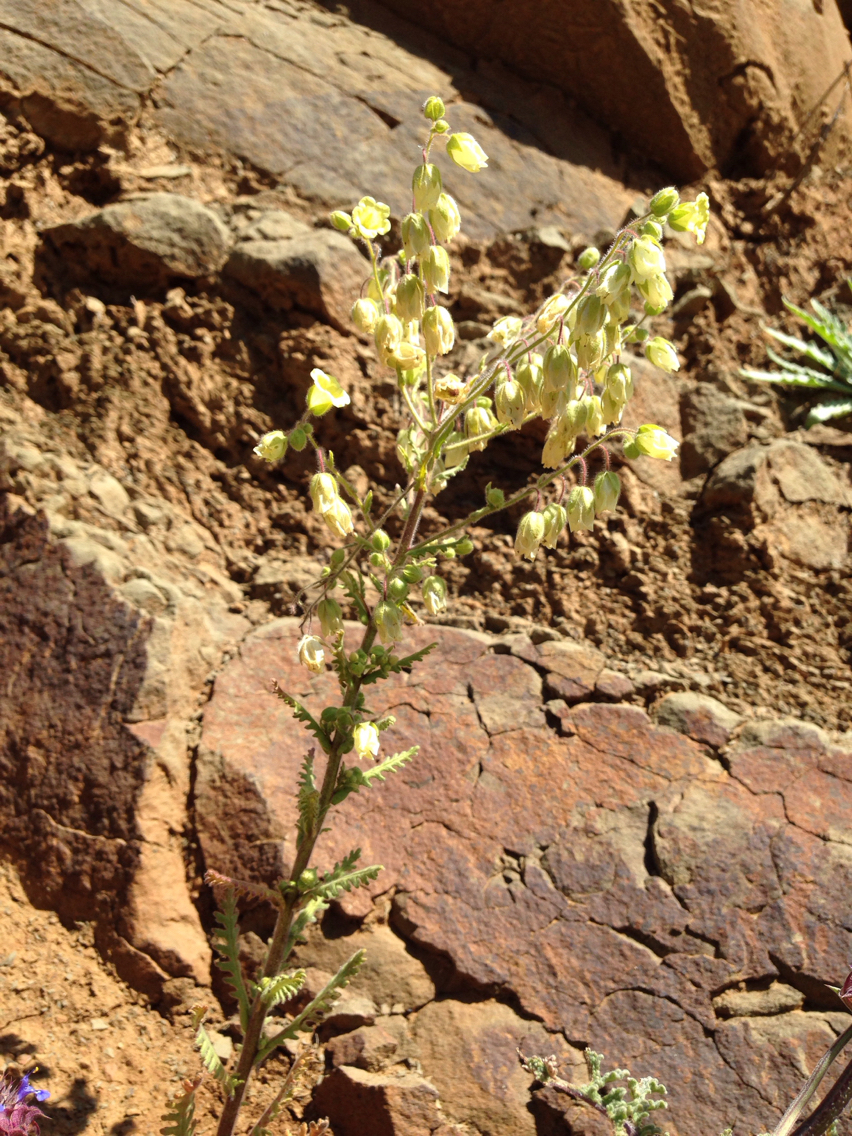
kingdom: Plantae
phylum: Tracheophyta
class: Magnoliopsida
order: Boraginales
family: Hydrophyllaceae
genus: Emmenanthe
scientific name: Emmenanthe penduliflora
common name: Whispering-bells
